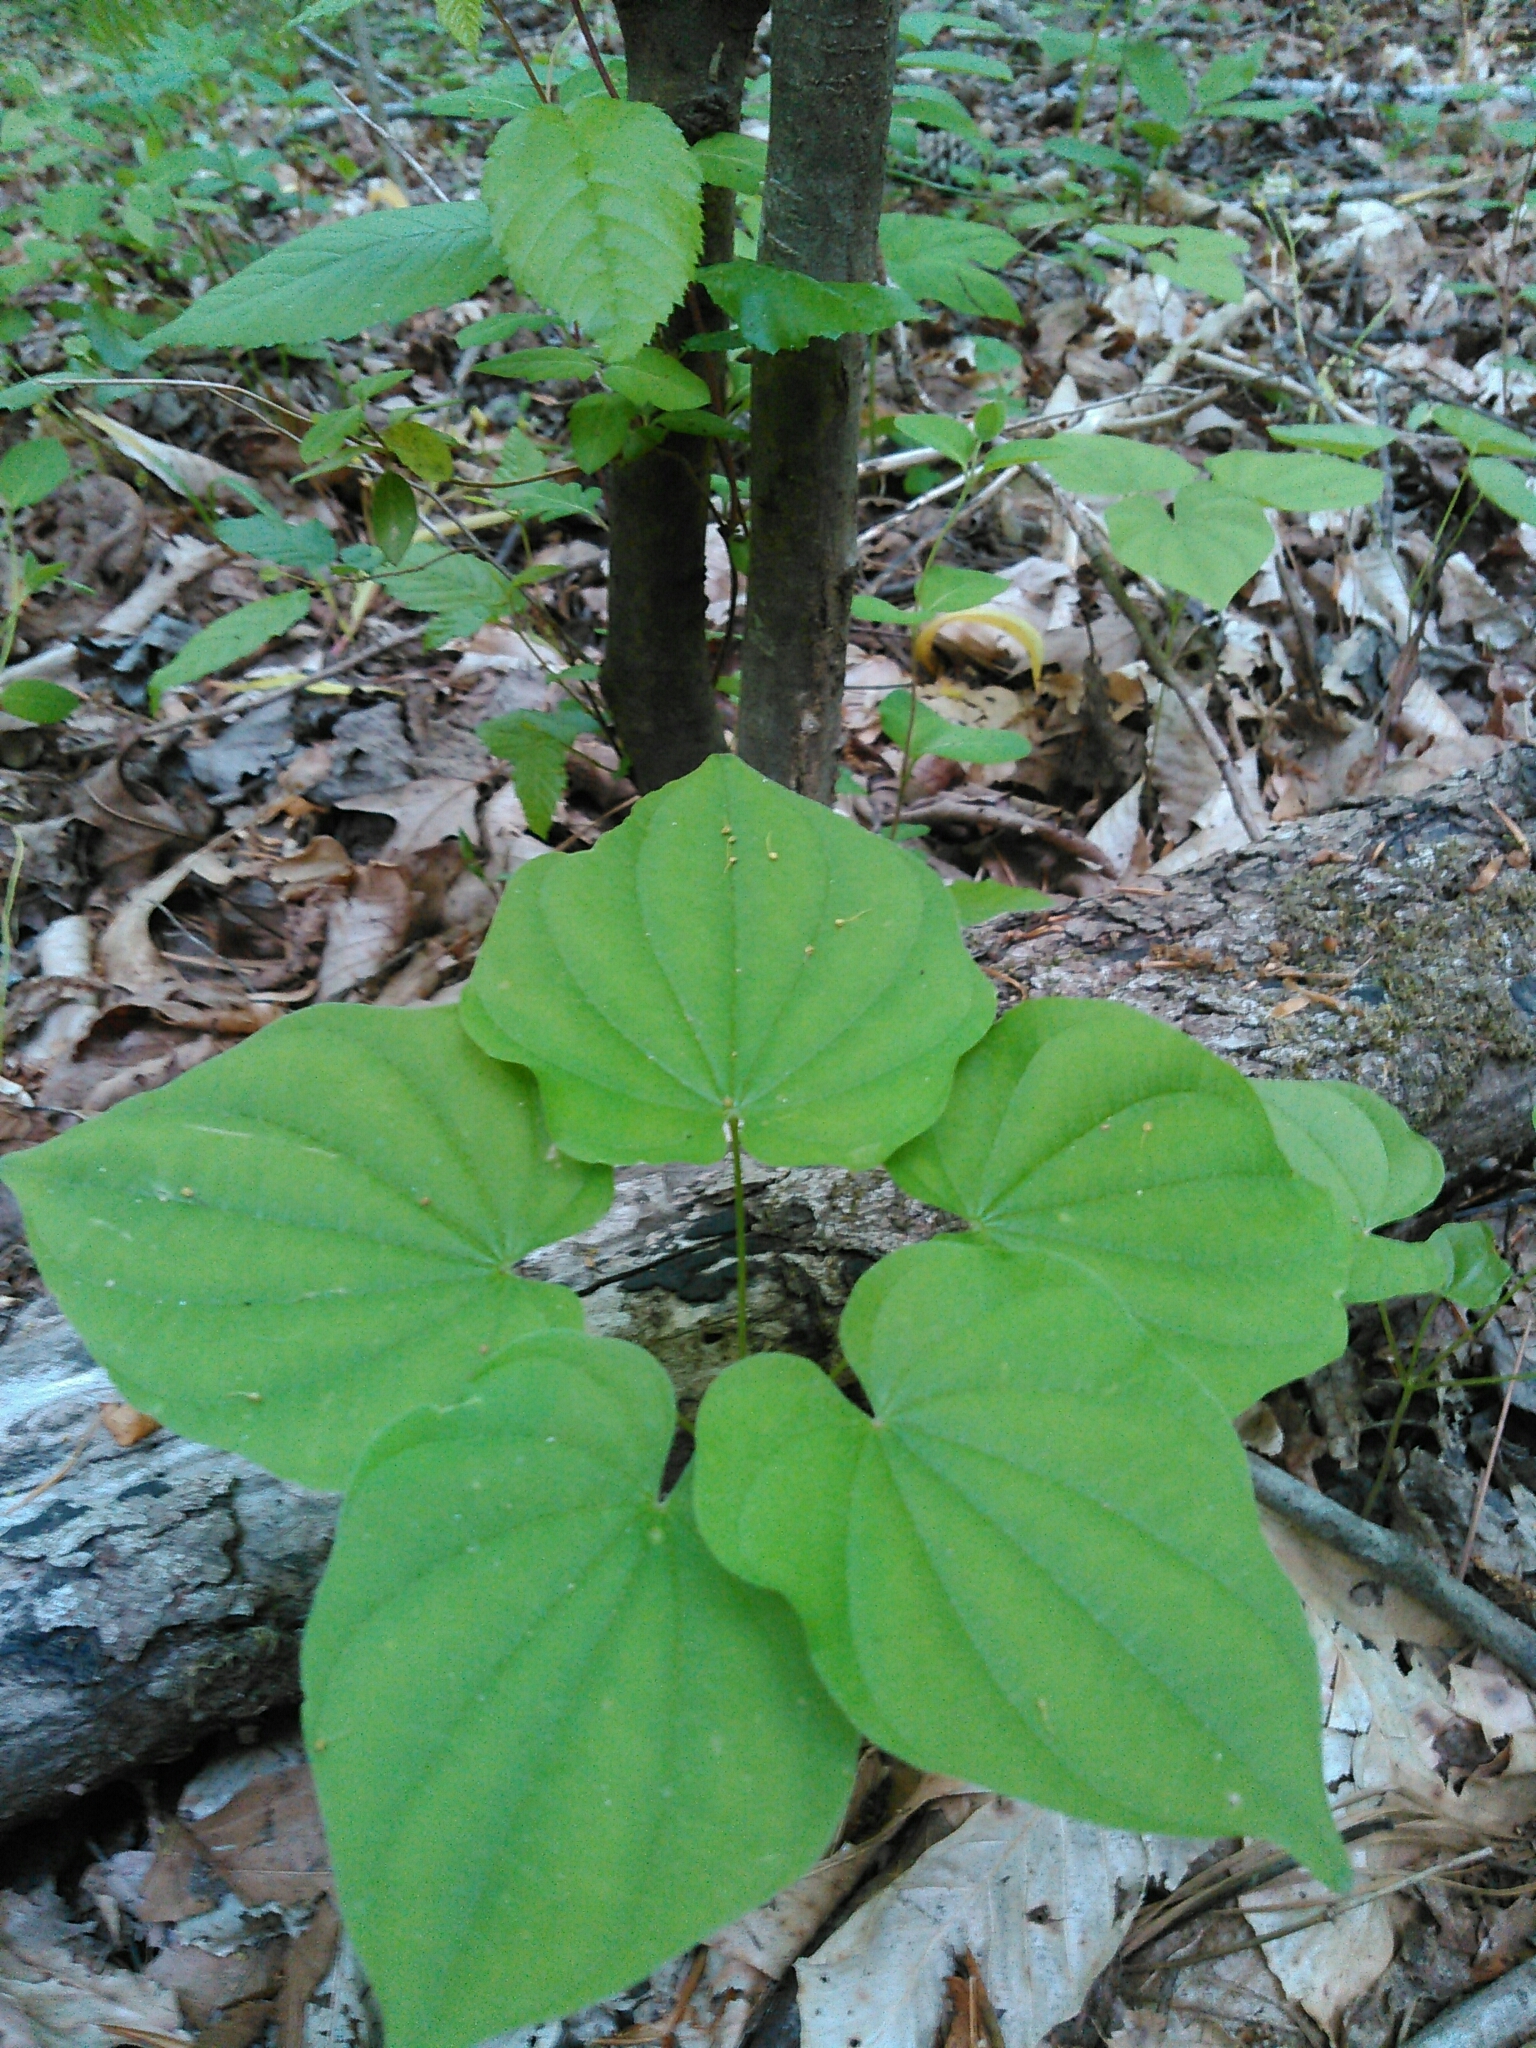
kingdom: Plantae
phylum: Tracheophyta
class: Liliopsida
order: Dioscoreales
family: Dioscoreaceae
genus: Dioscorea
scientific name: Dioscorea villosa
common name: Wild yam
